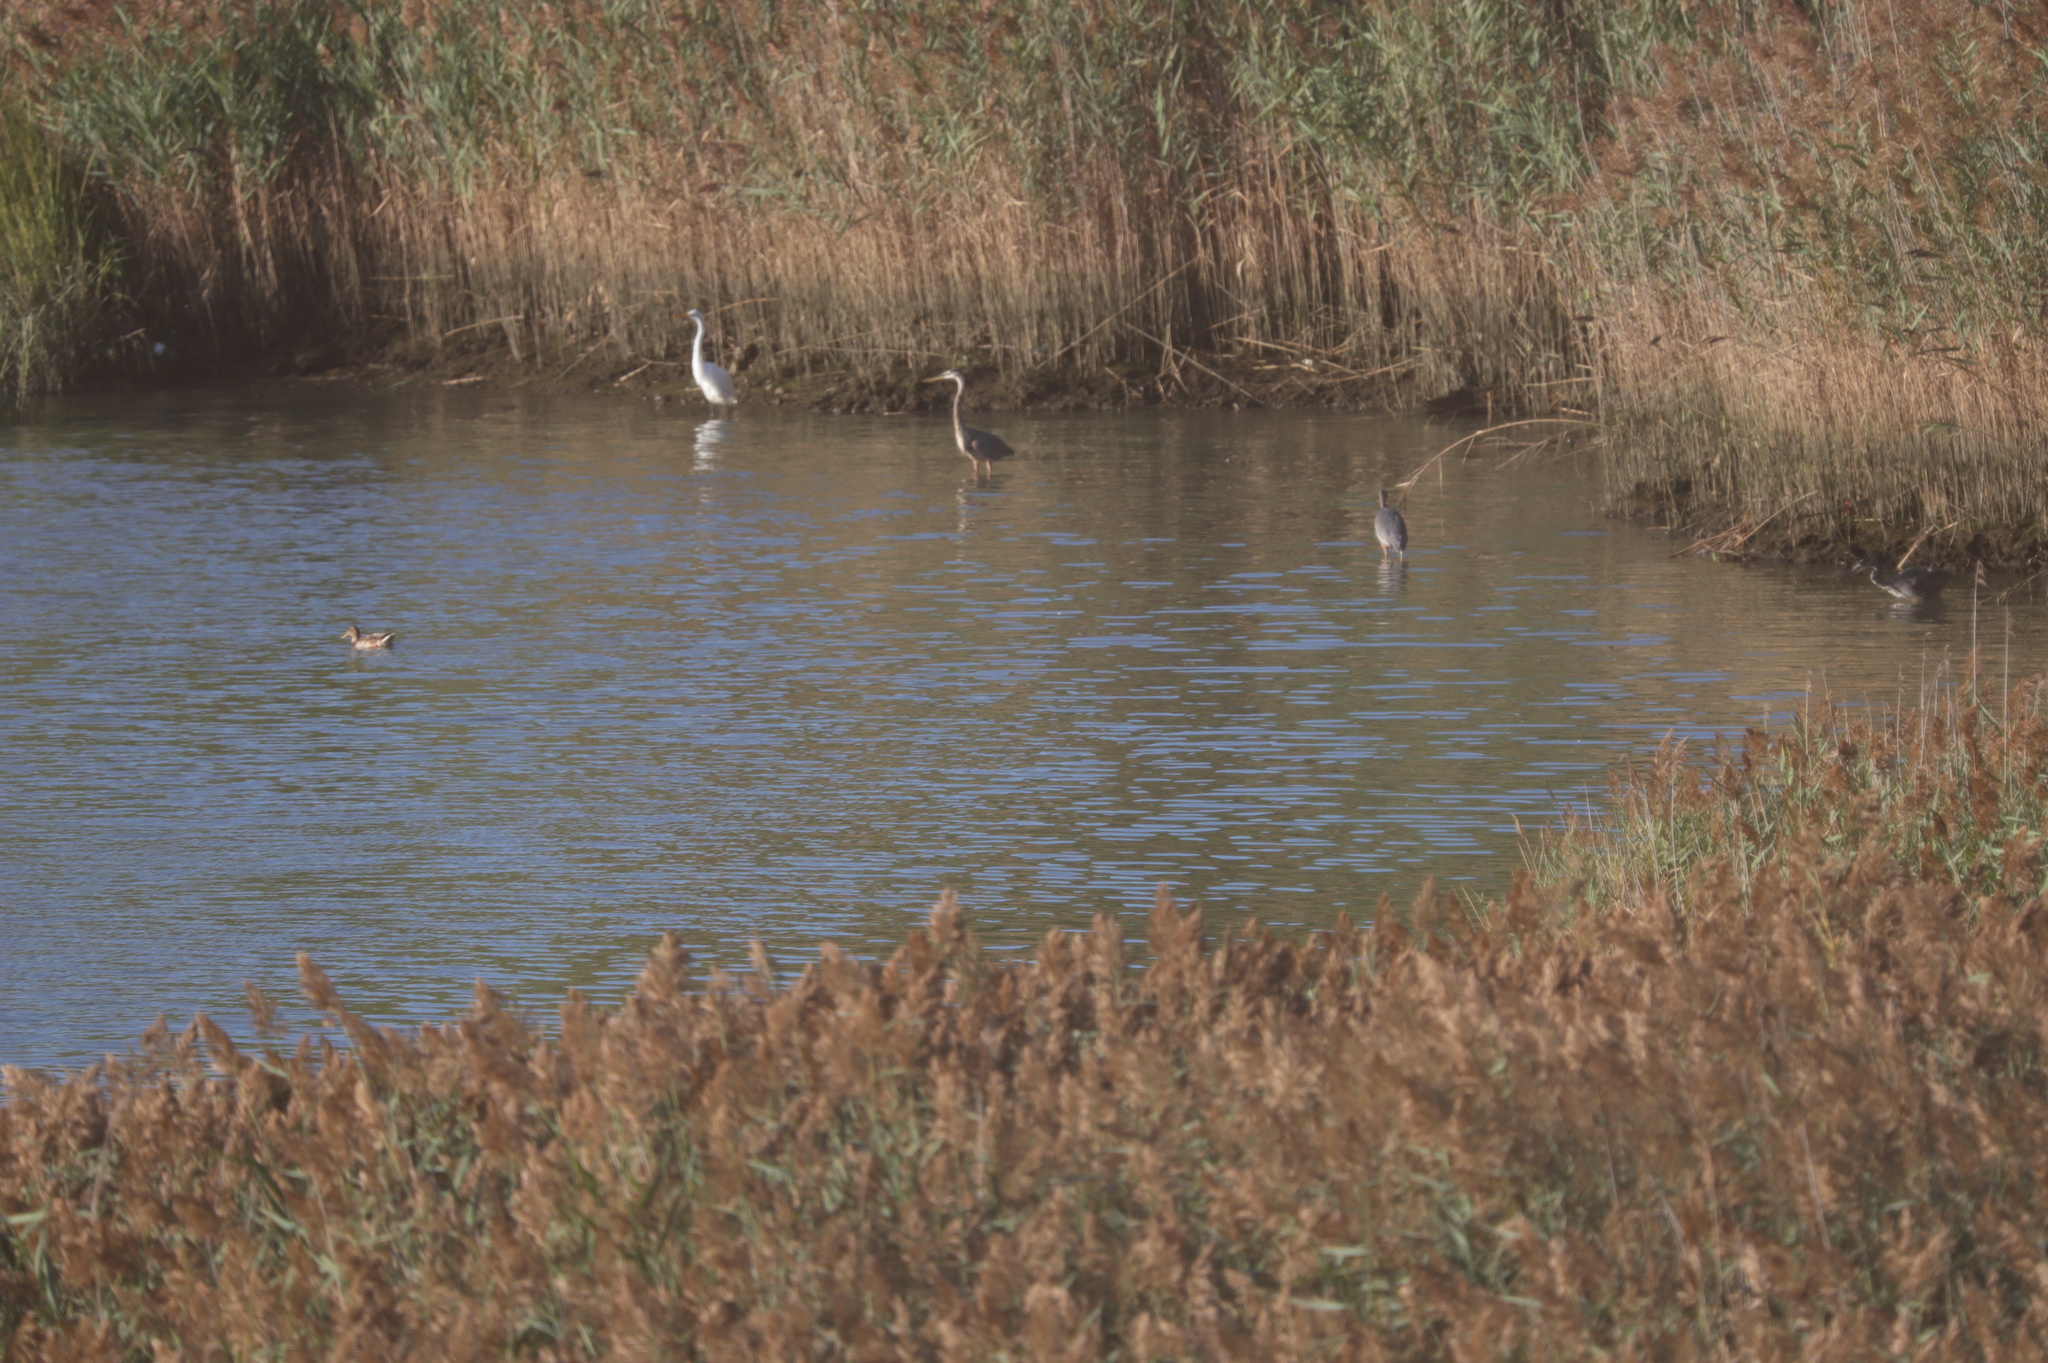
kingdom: Plantae
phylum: Tracheophyta
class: Liliopsida
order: Poales
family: Poaceae
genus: Phragmites
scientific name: Phragmites australis
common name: Common reed
